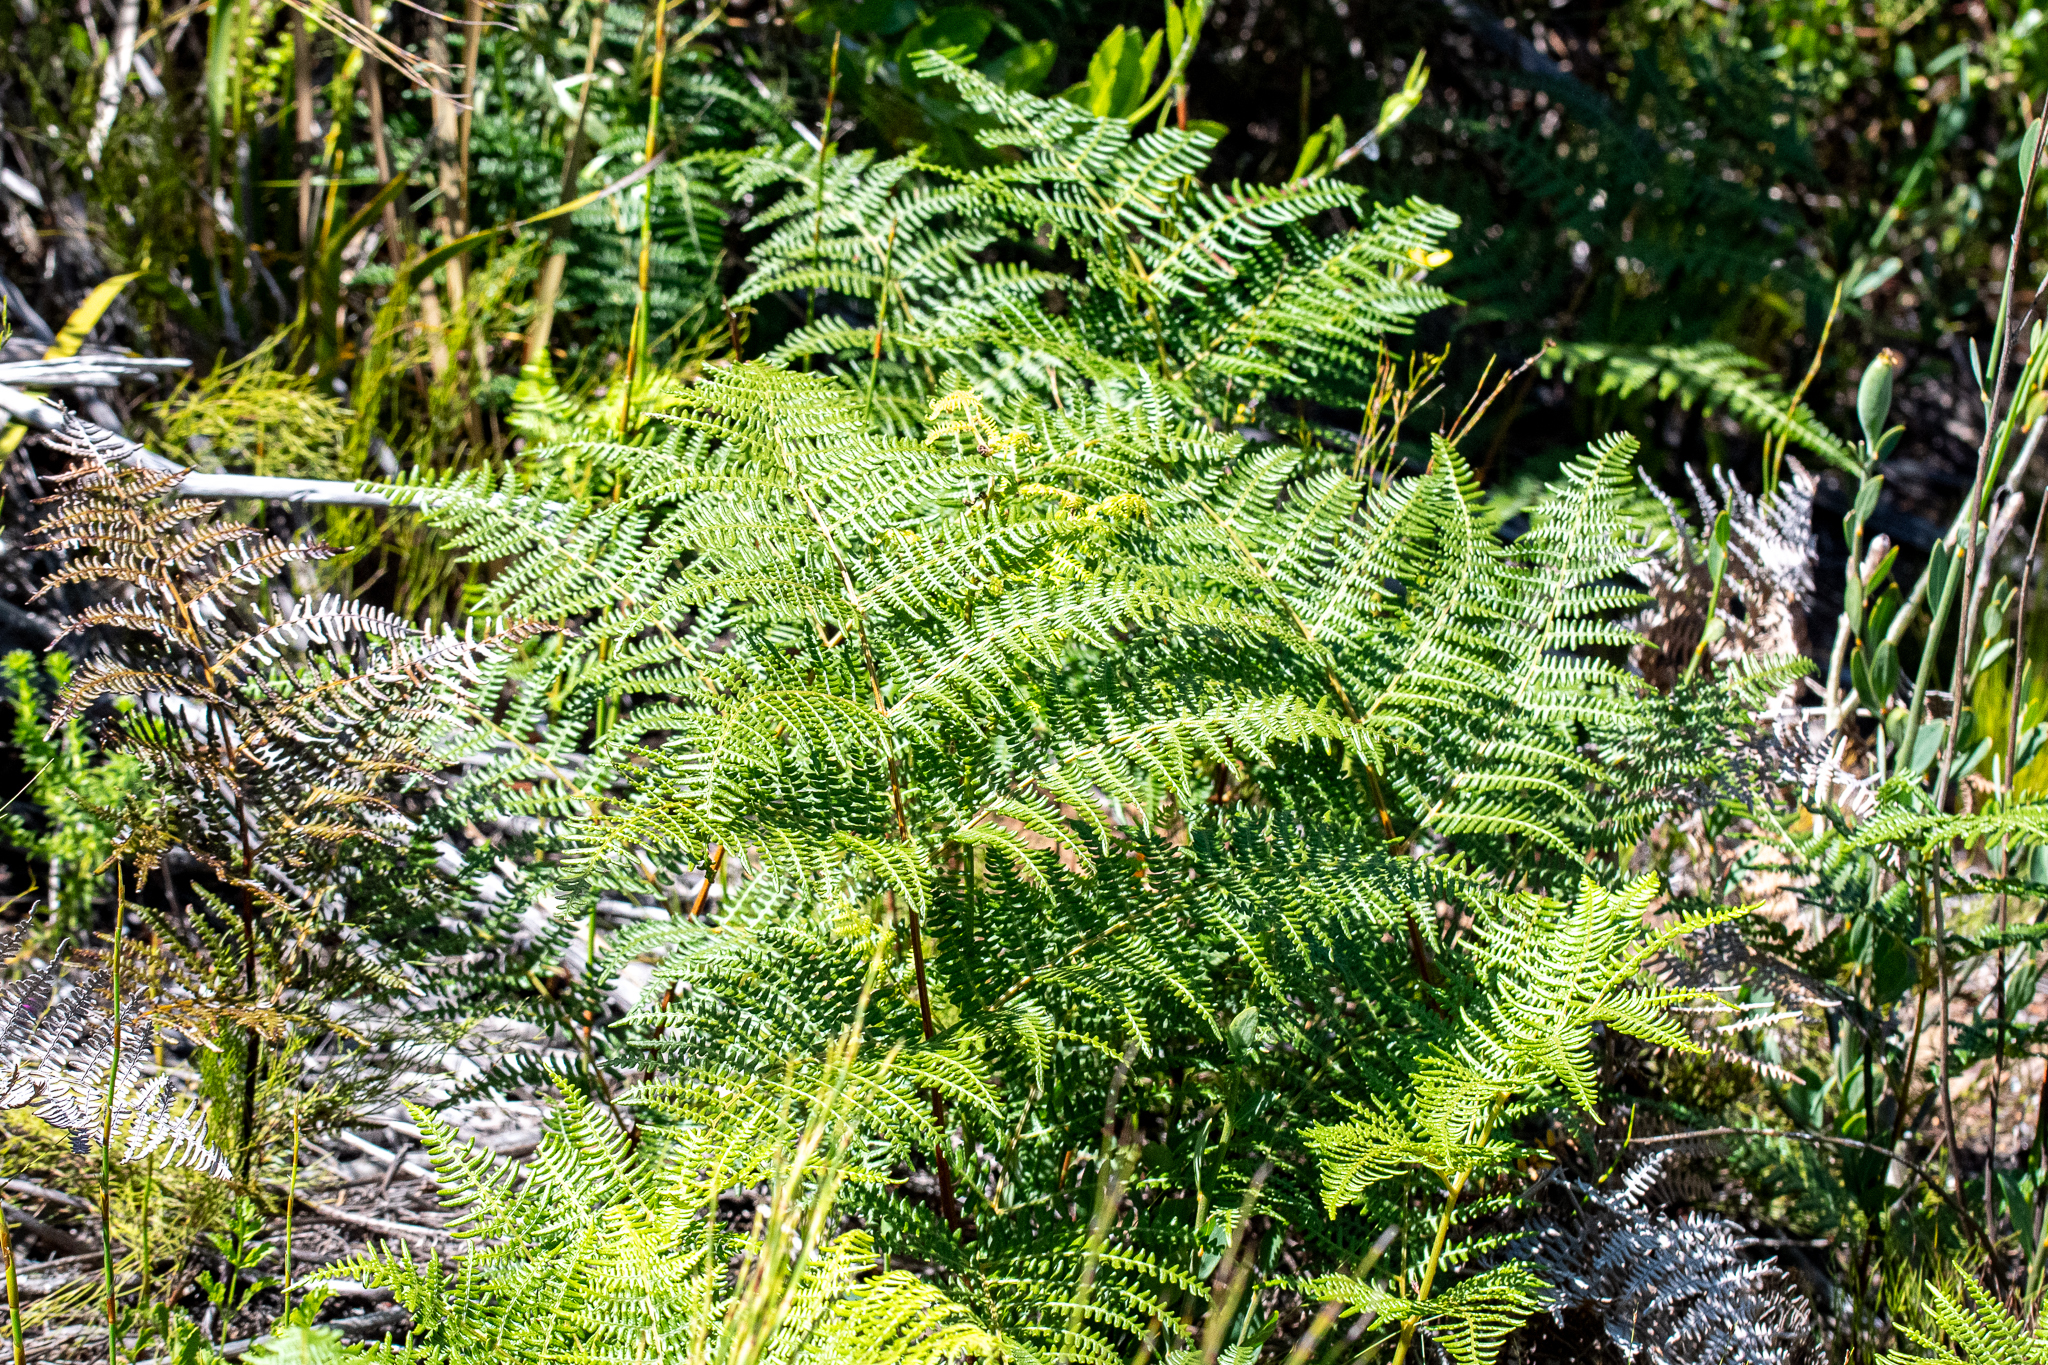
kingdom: Plantae
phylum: Tracheophyta
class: Polypodiopsida
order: Polypodiales
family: Dennstaedtiaceae
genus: Pteridium
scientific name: Pteridium aquilinum
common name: Bracken
